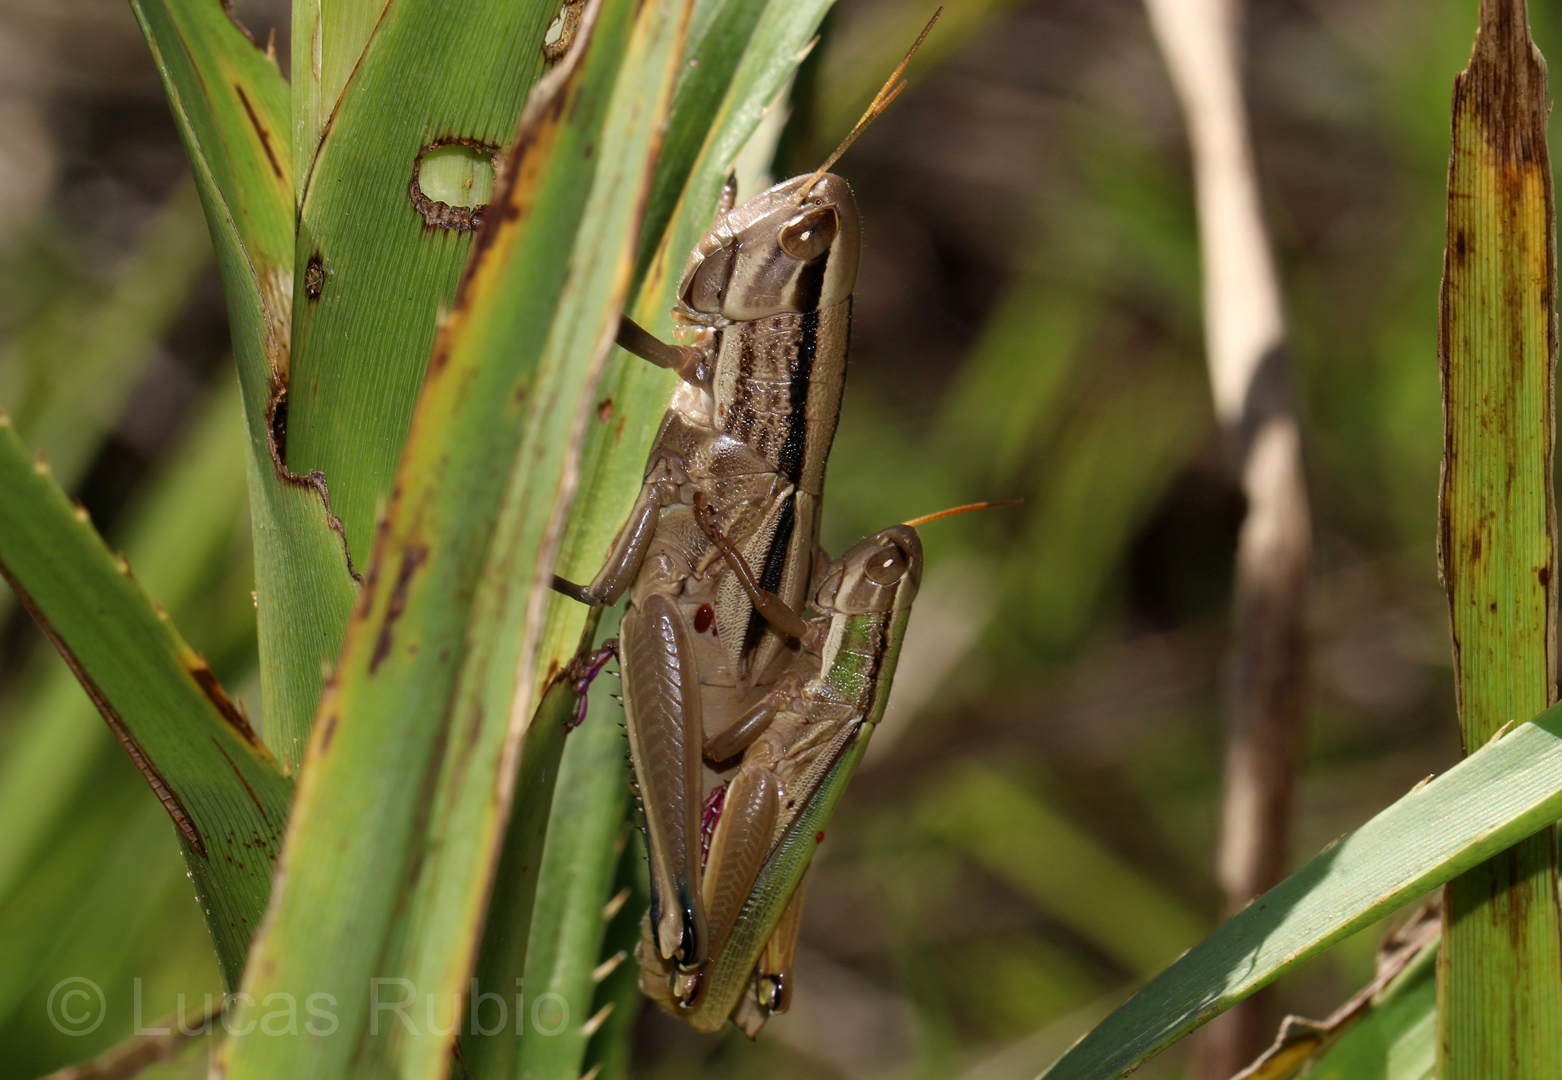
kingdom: Animalia
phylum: Arthropoda
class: Insecta
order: Orthoptera
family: Acrididae
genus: Aleuas
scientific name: Aleuas vitticollis
